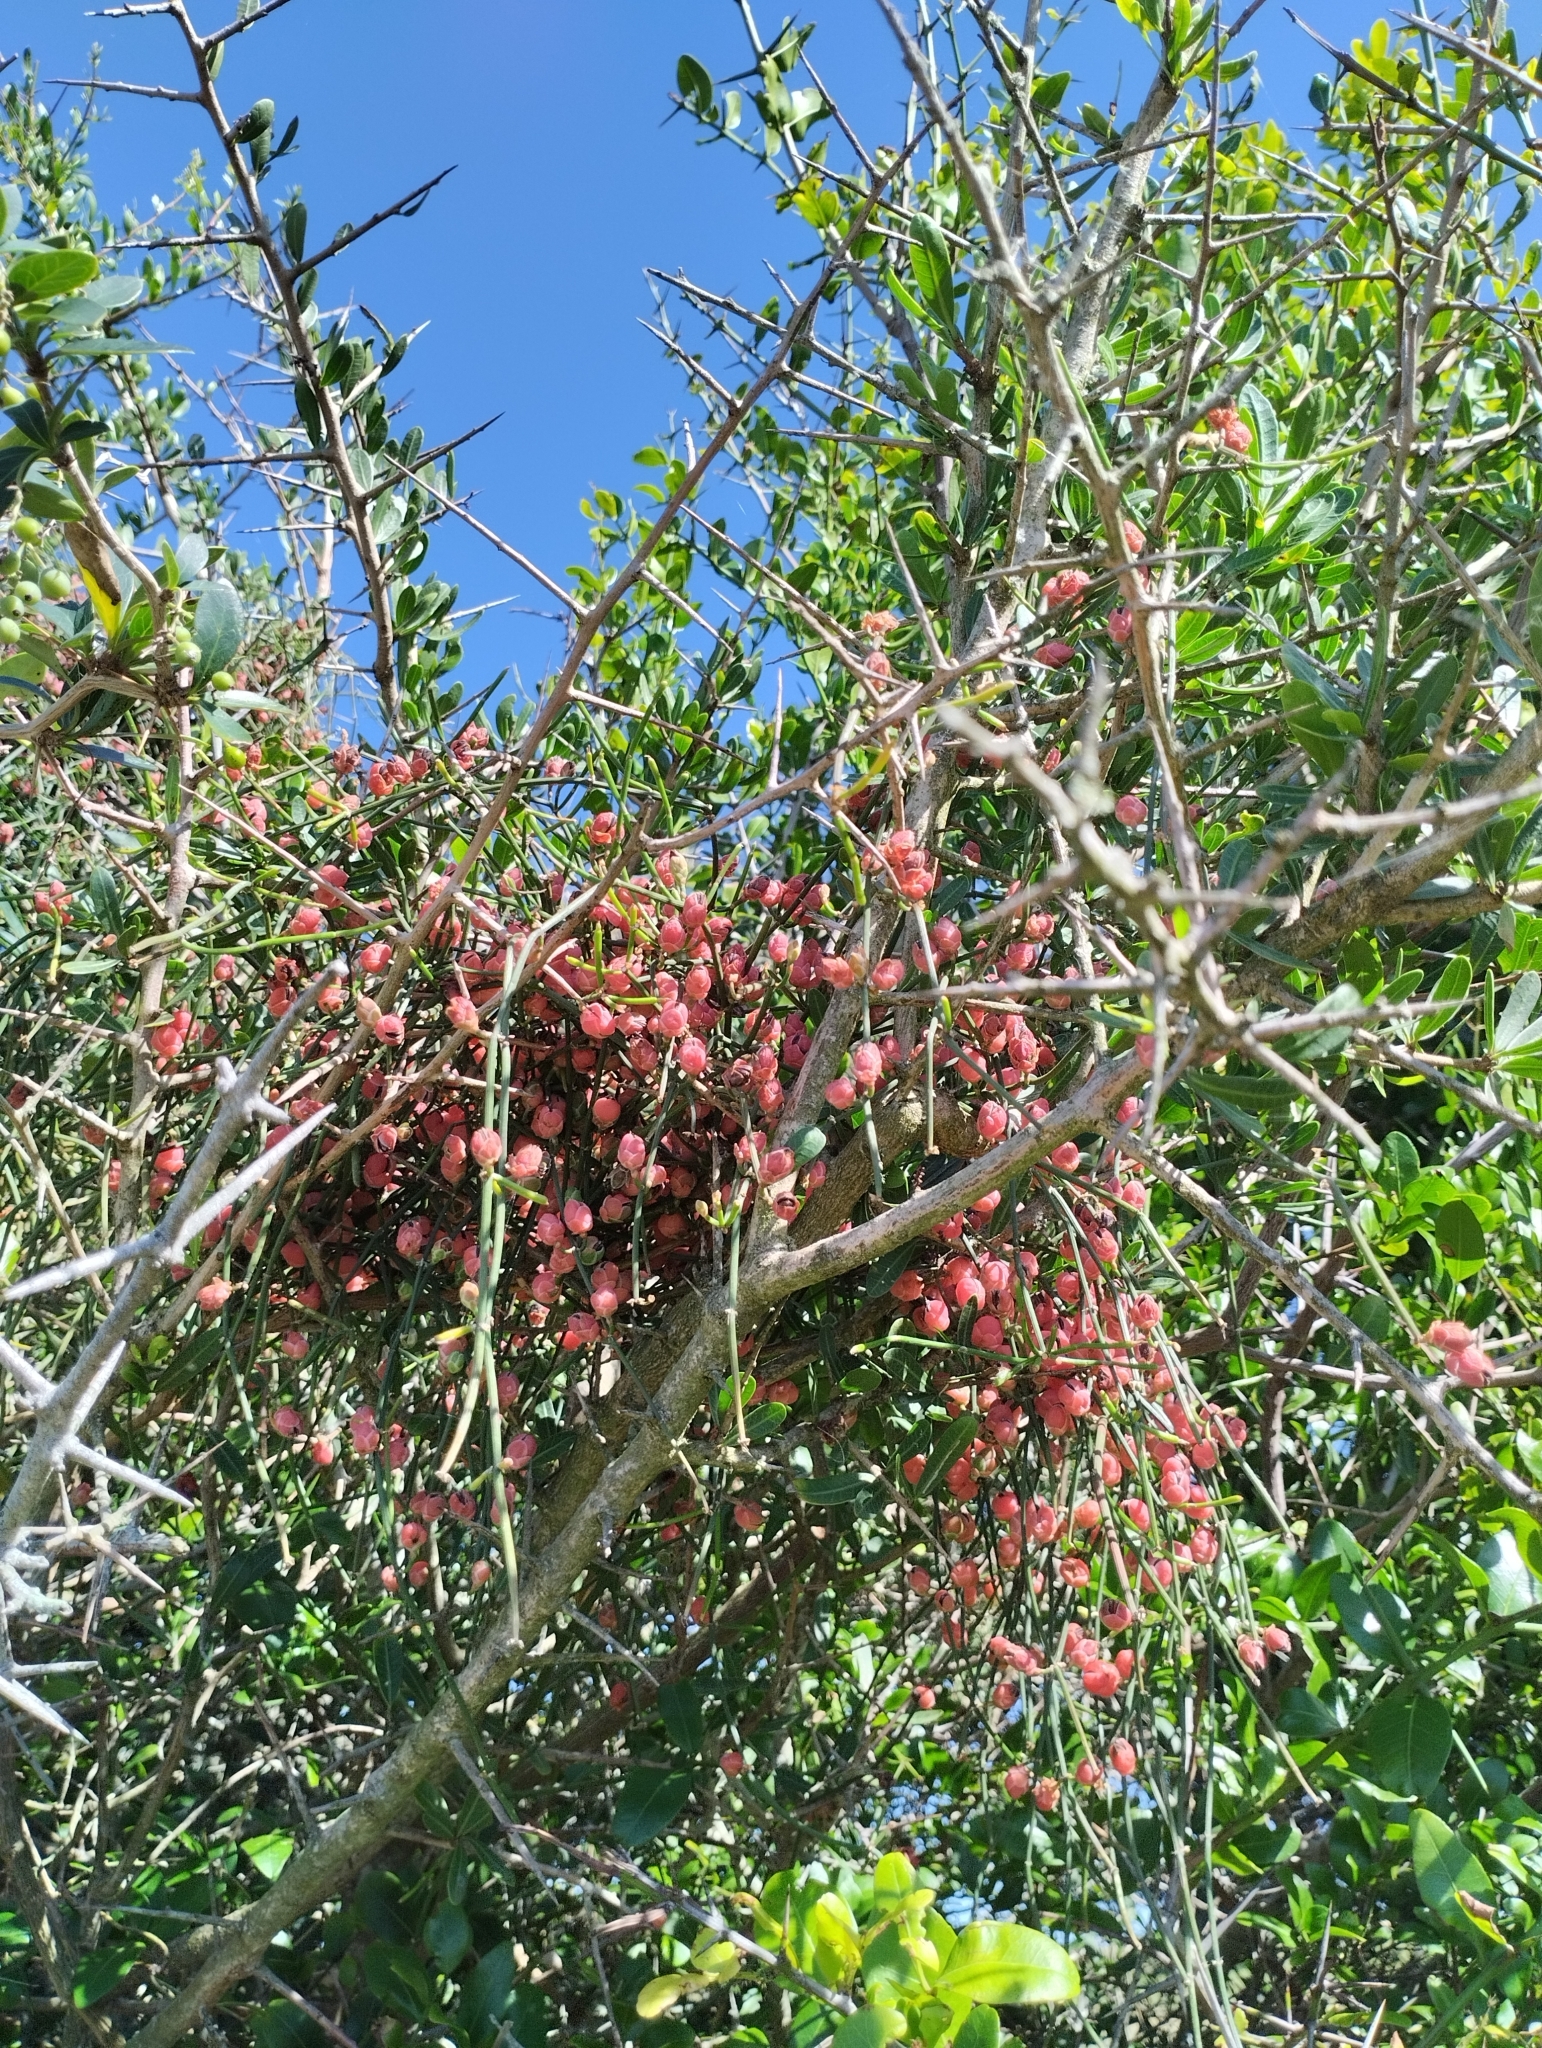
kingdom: Plantae
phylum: Tracheophyta
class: Gnetopsida
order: Ephedrales
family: Ephedraceae
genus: Ephedra
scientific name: Ephedra tweedieana
